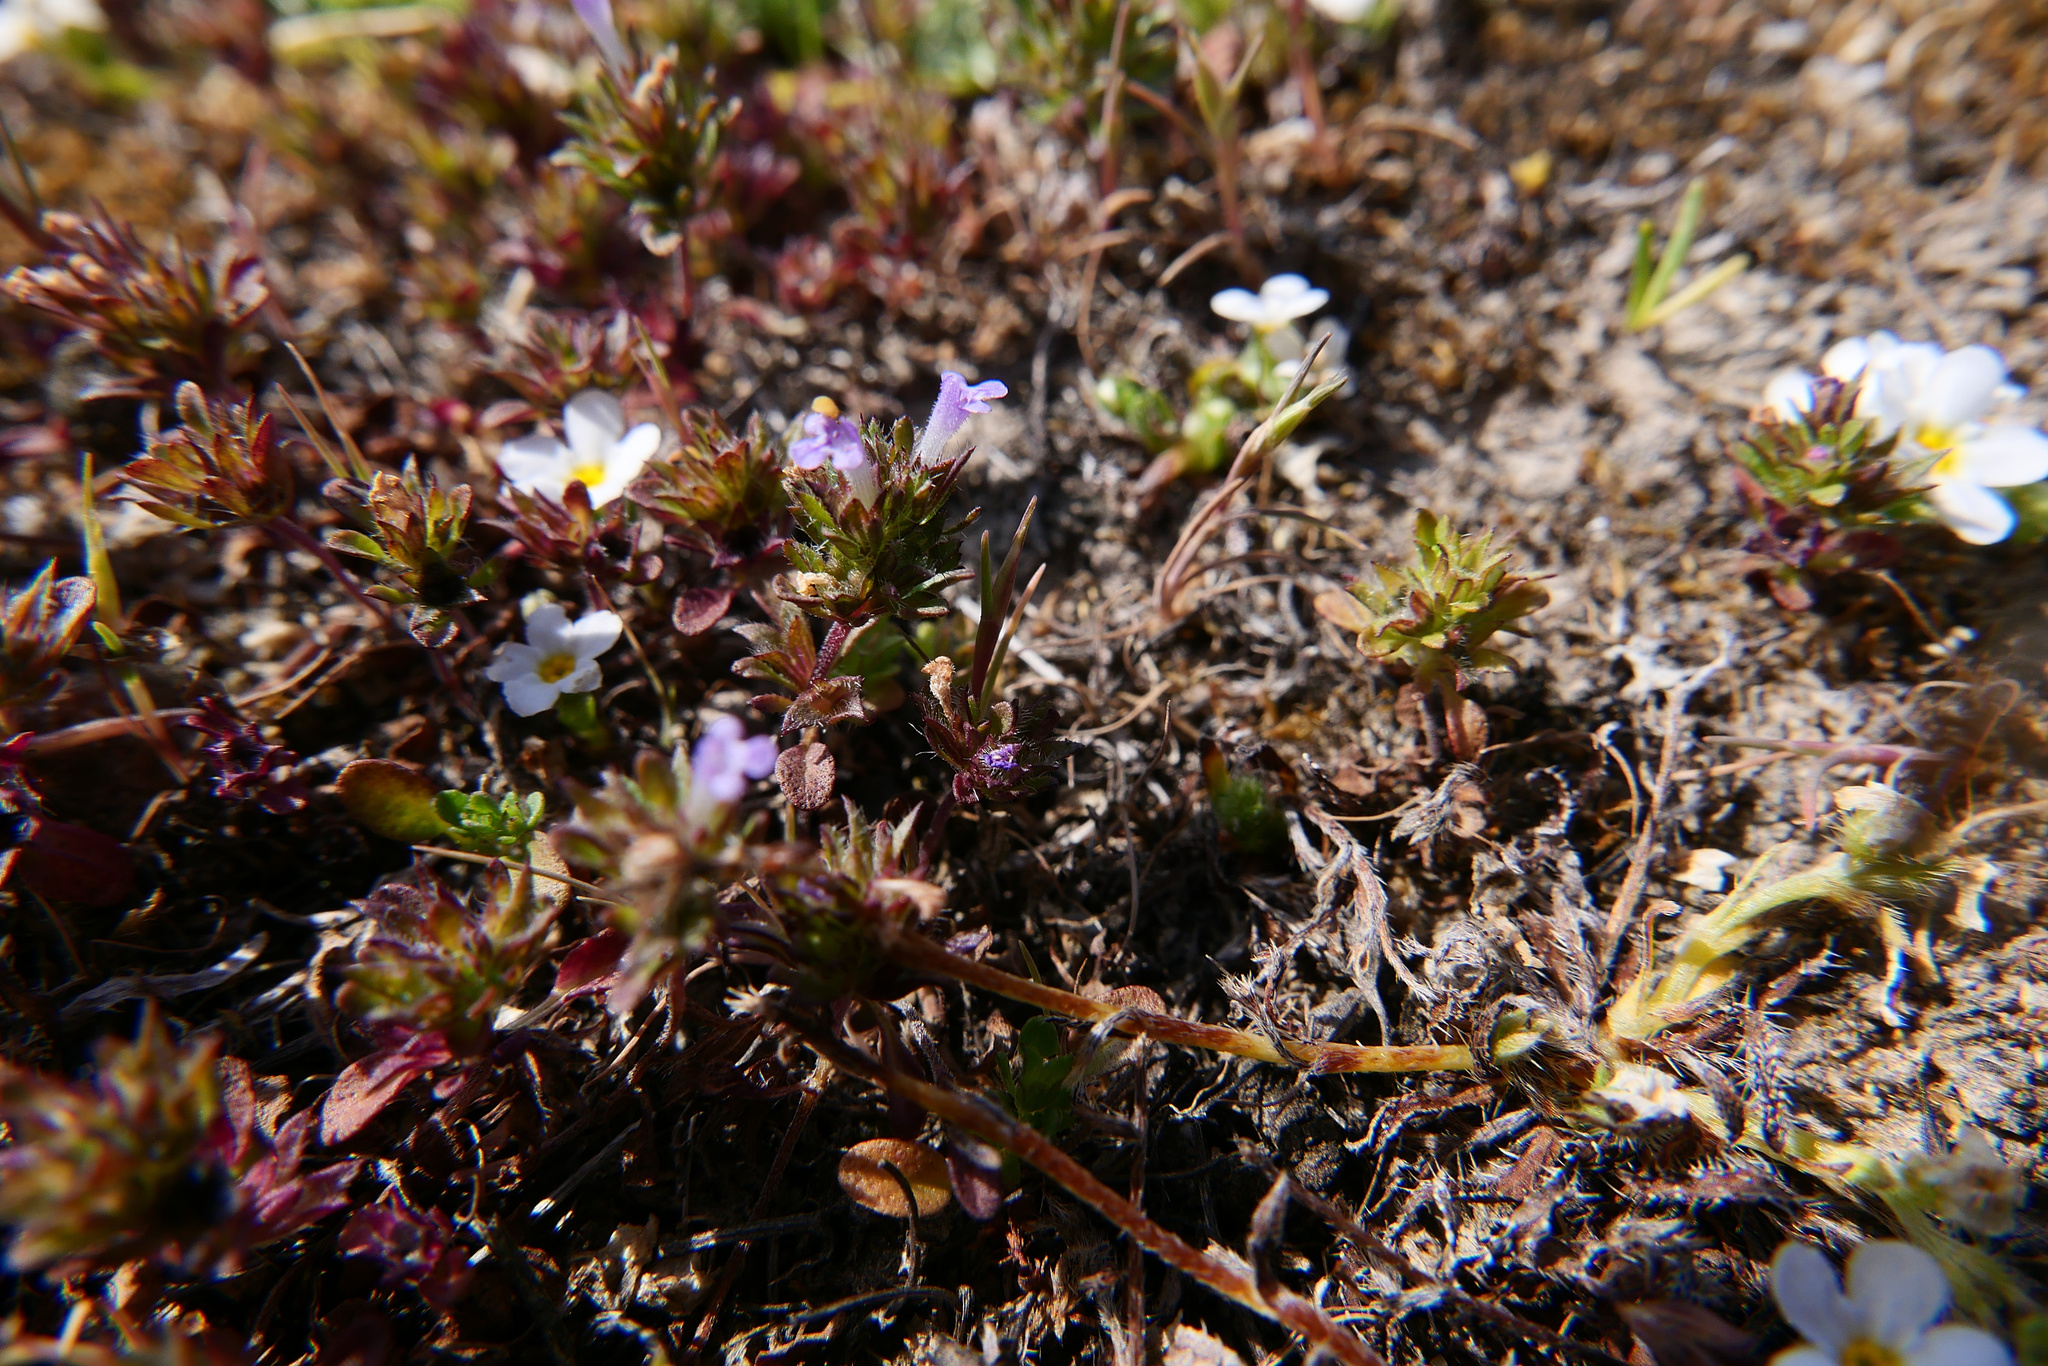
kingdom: Plantae
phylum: Tracheophyta
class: Magnoliopsida
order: Lamiales
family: Lamiaceae
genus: Pogogyne
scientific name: Pogogyne serpylloides
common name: Thymeleaf mesamint
